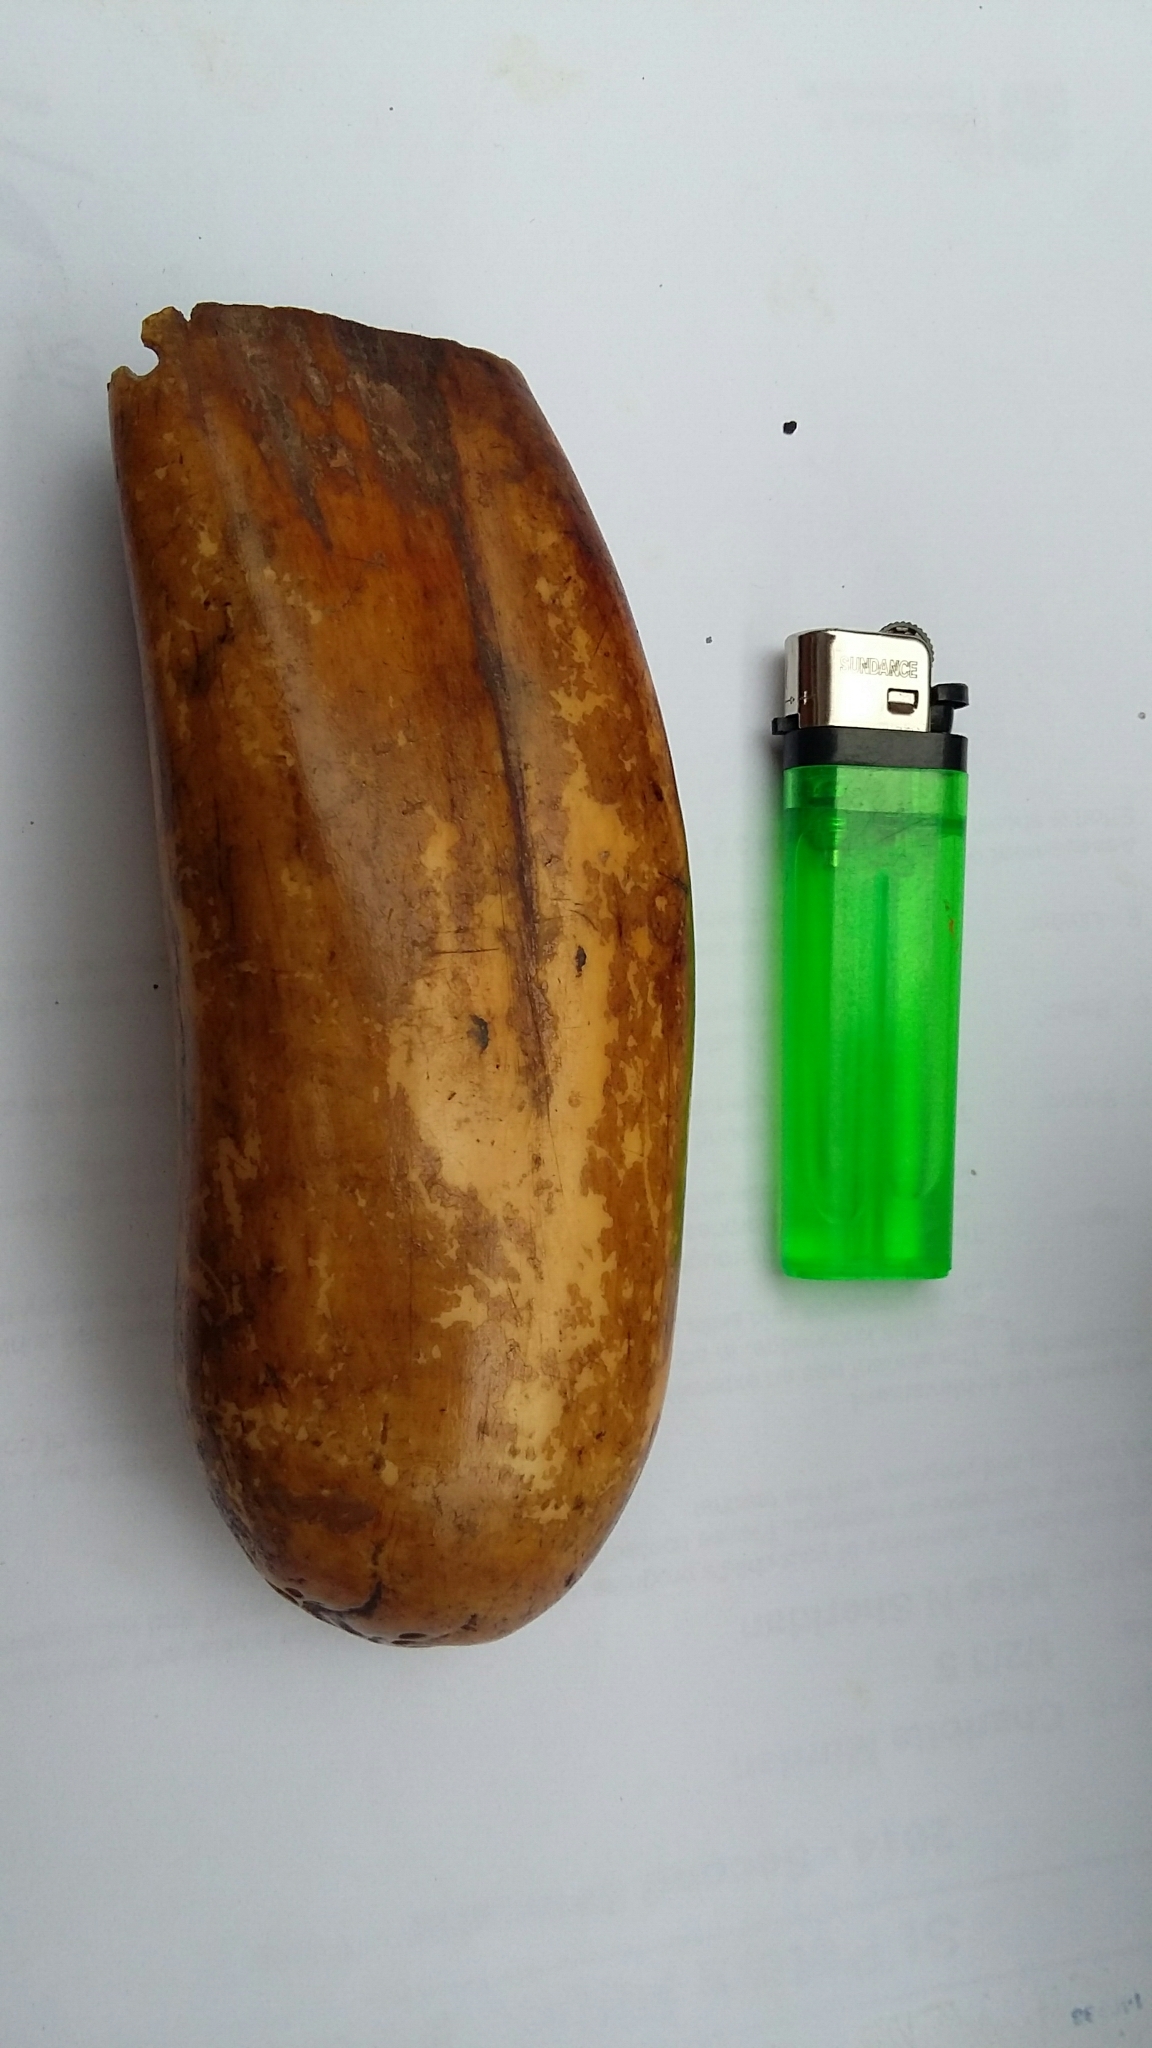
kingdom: Animalia
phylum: Chordata
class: Mammalia
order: Cetacea
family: Physeteridae
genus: Physeter
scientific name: Physeter macrocephalus
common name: Sperm whale
